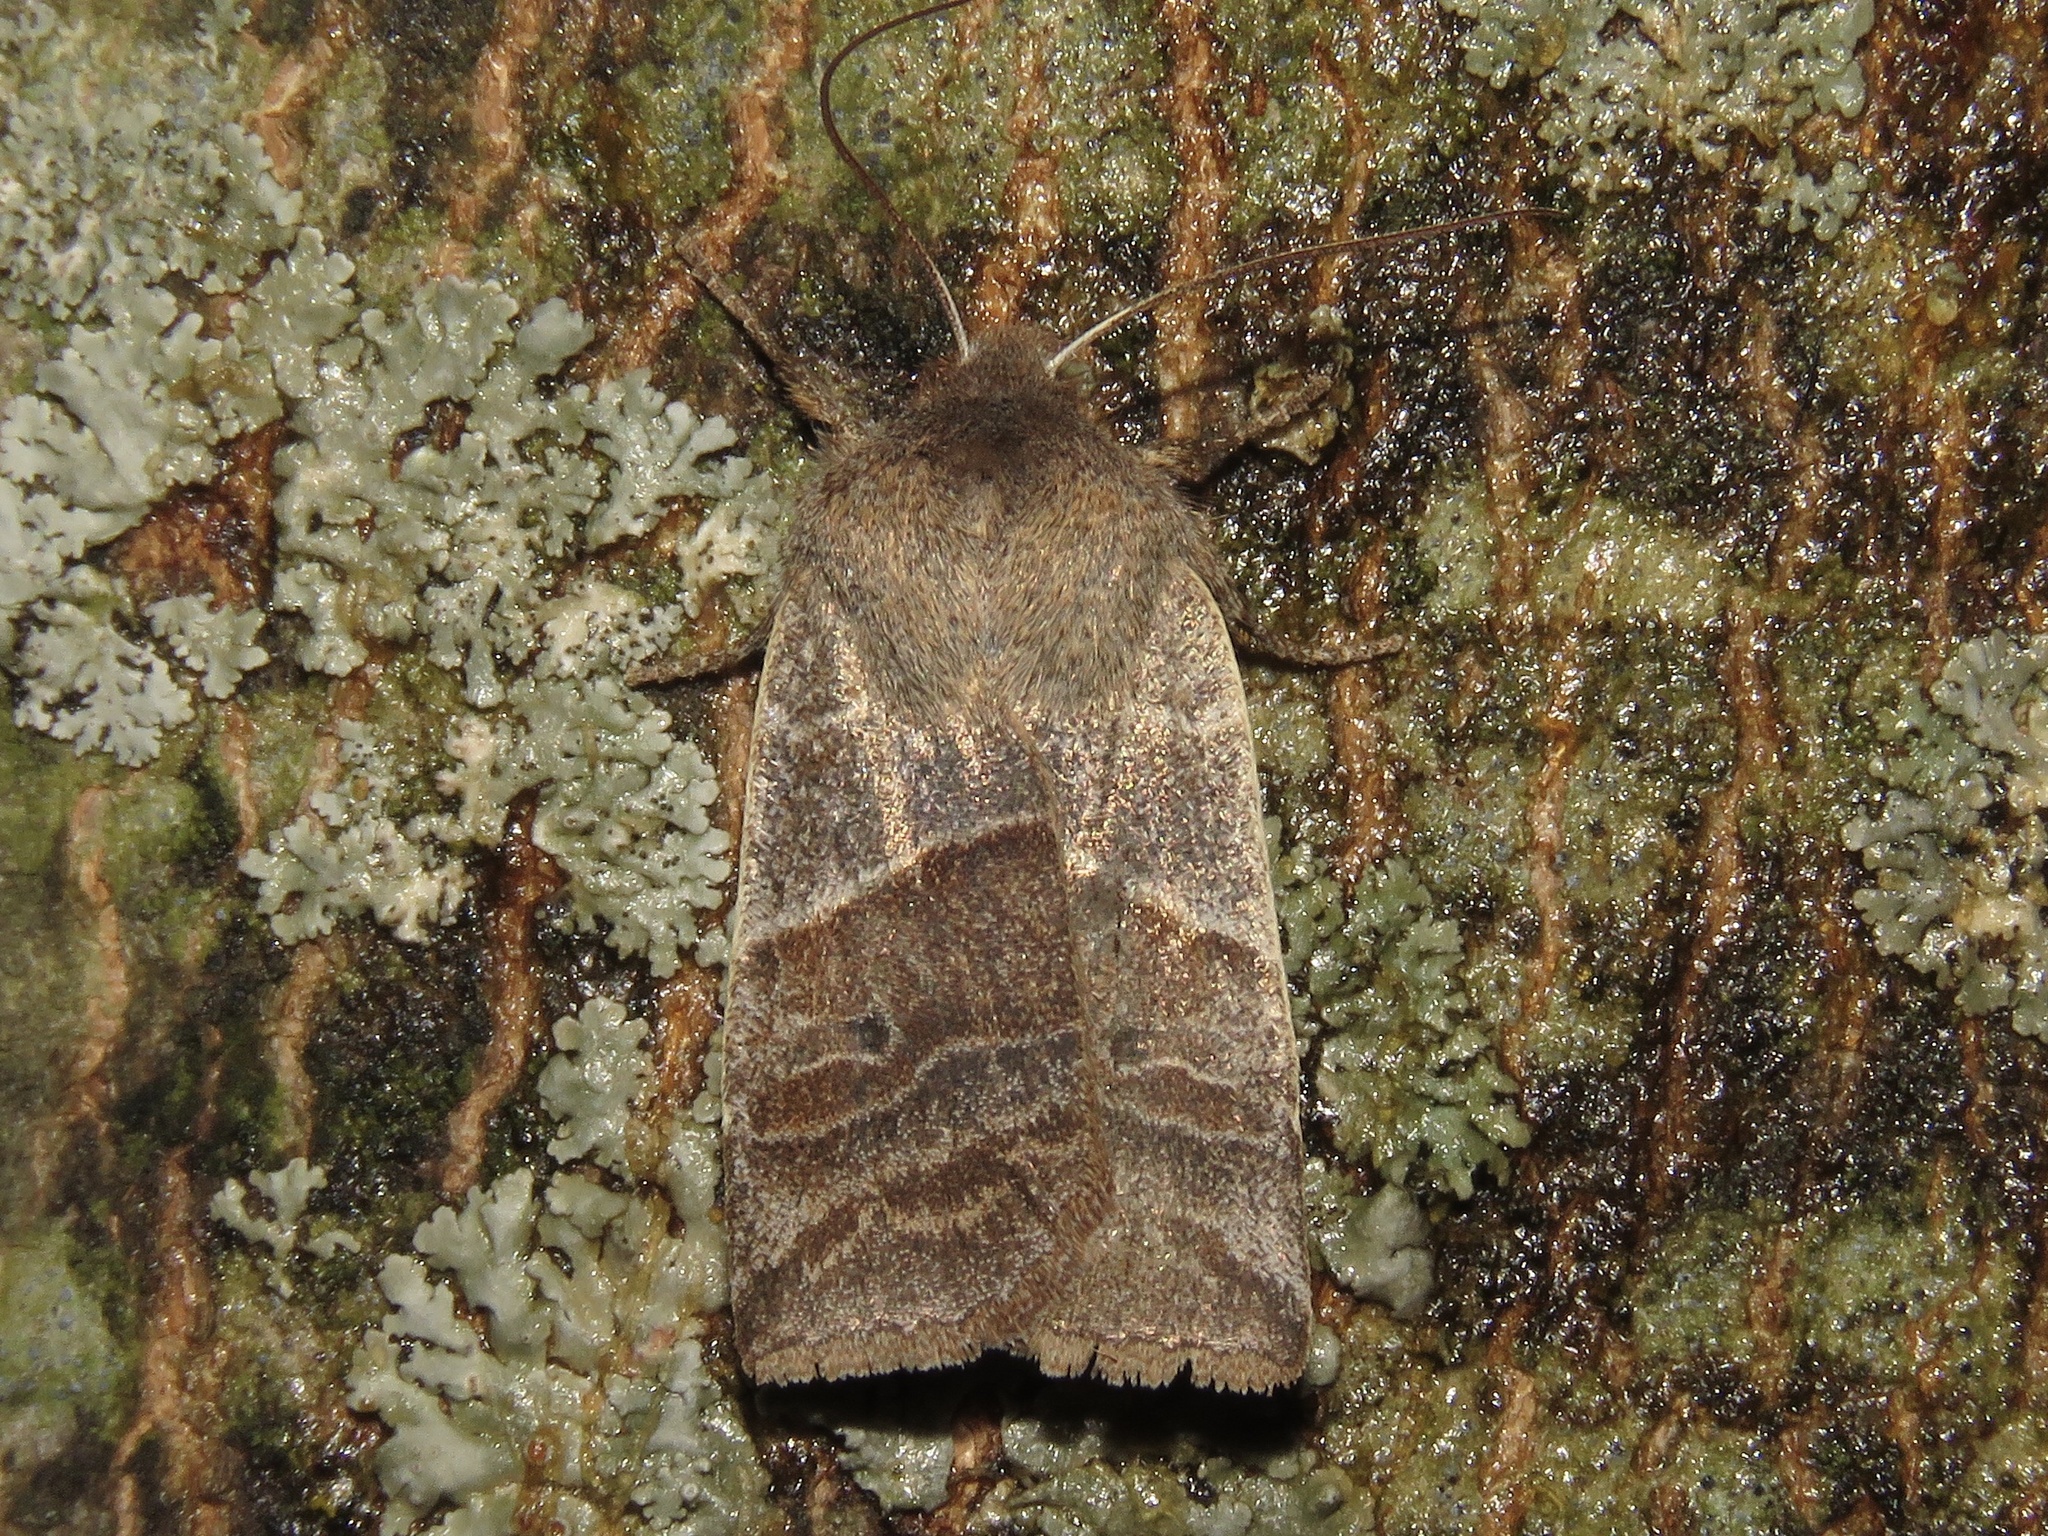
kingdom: Animalia
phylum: Arthropoda
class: Insecta
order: Lepidoptera
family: Noctuidae
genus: Eupsilia
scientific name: Eupsilia devia
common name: Lost sallow
